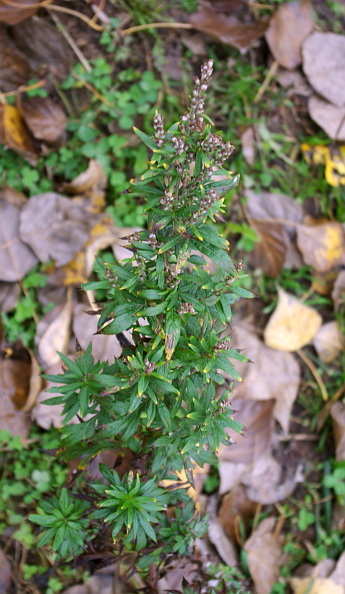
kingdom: Plantae
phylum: Tracheophyta
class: Magnoliopsida
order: Asterales
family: Asteraceae
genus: Artemisia
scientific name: Artemisia vulgaris
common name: Mugwort
